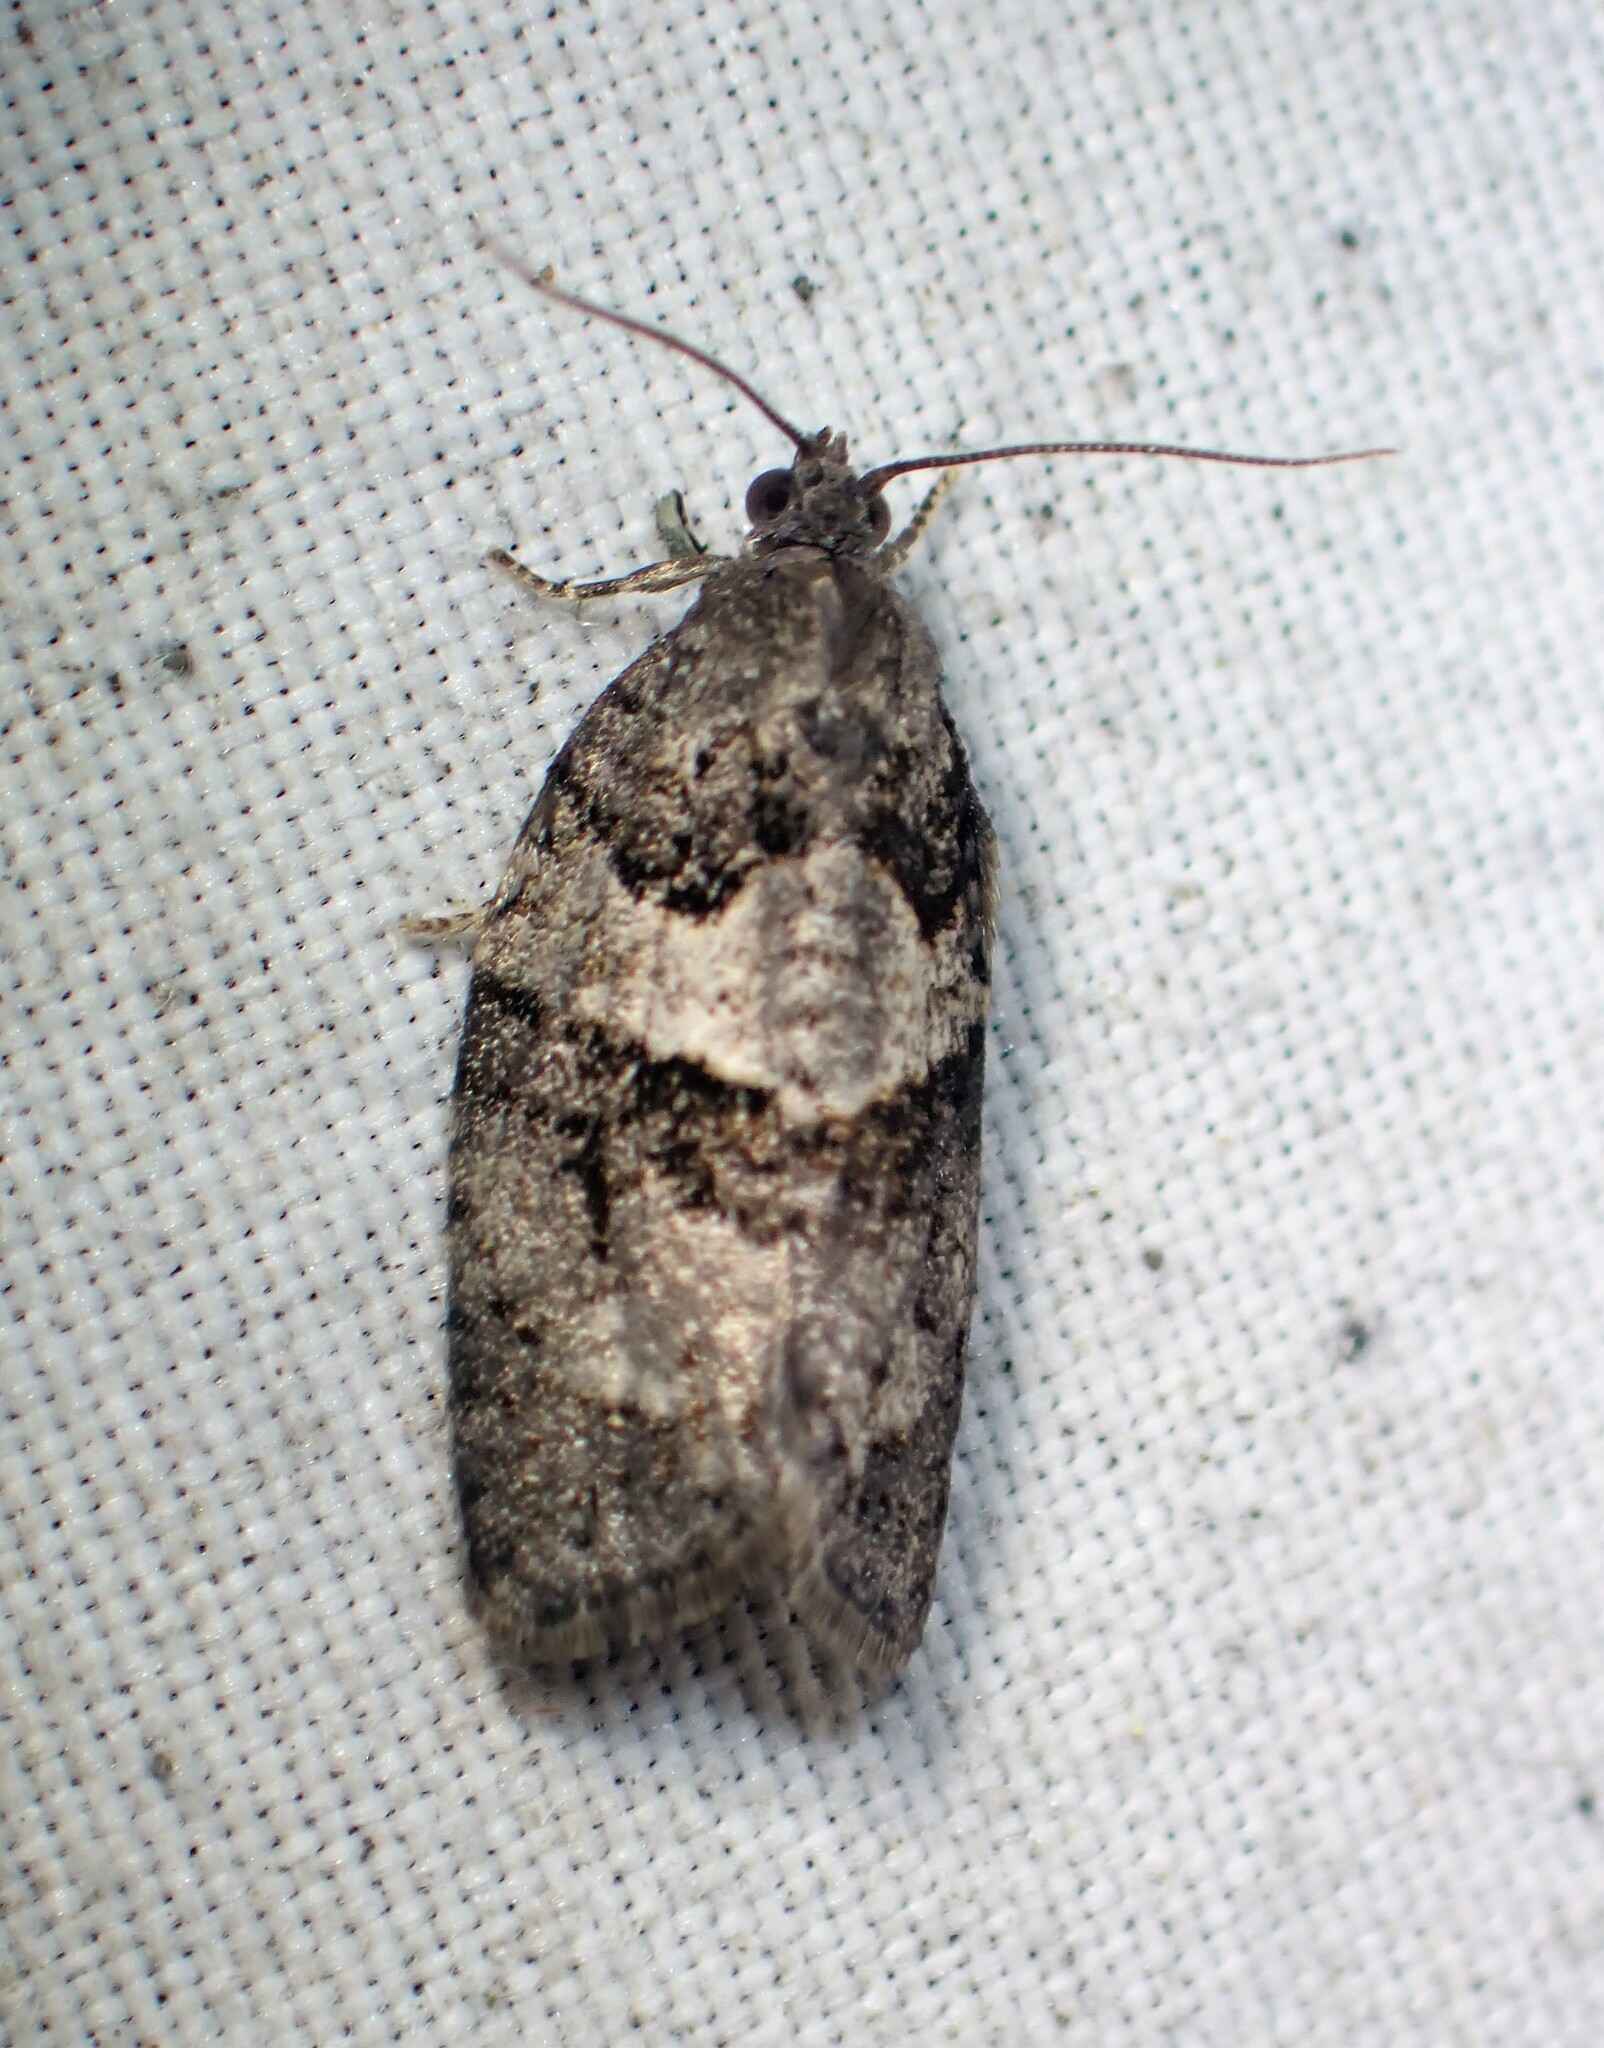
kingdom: Animalia
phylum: Arthropoda
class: Insecta
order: Lepidoptera
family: Tortricidae
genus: Syndemis
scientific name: Syndemis afflictana
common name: Gray leafroller moth
